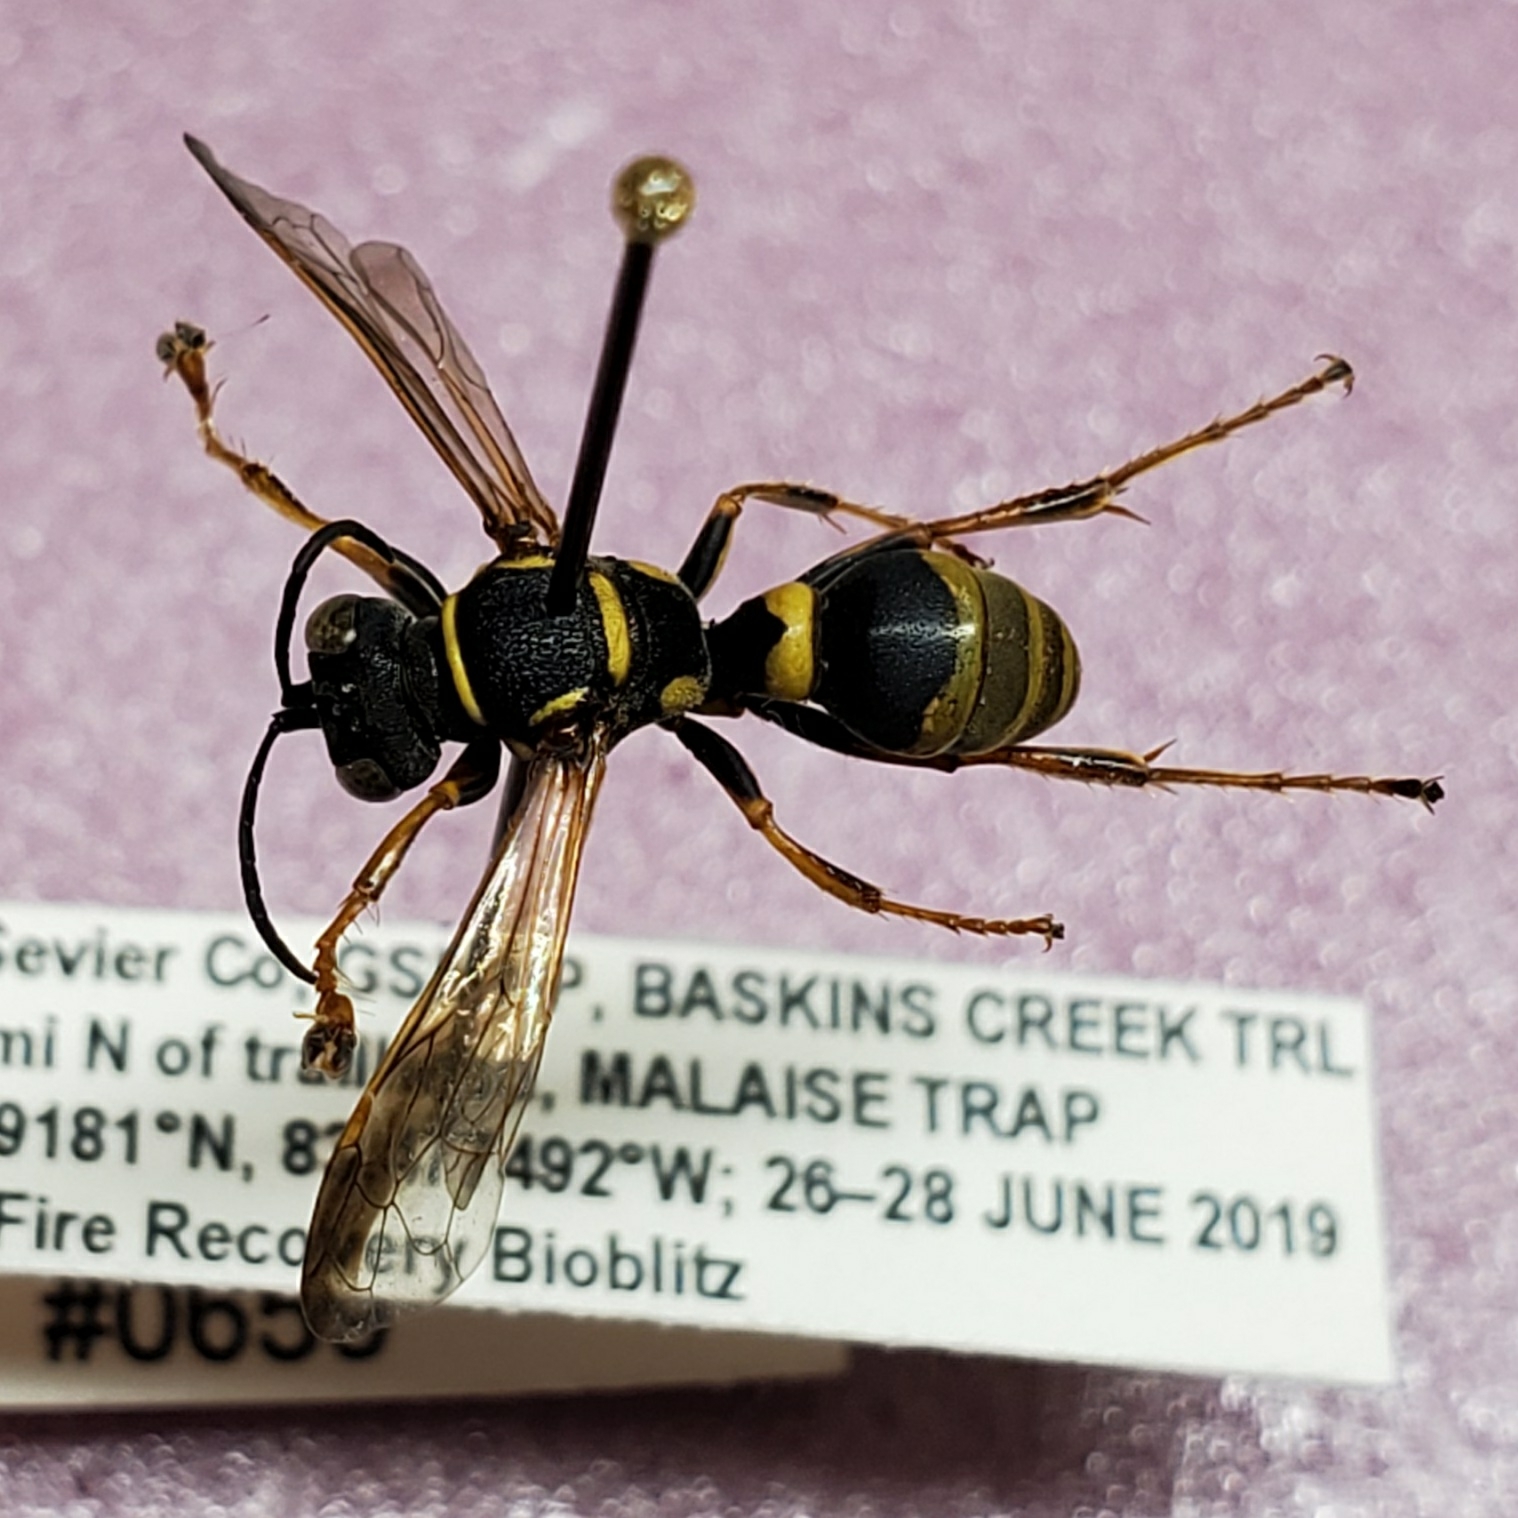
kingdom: Animalia
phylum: Arthropoda
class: Insecta
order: Hymenoptera
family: Crabronidae
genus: Psammaletes
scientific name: Psammaletes mexicanus
